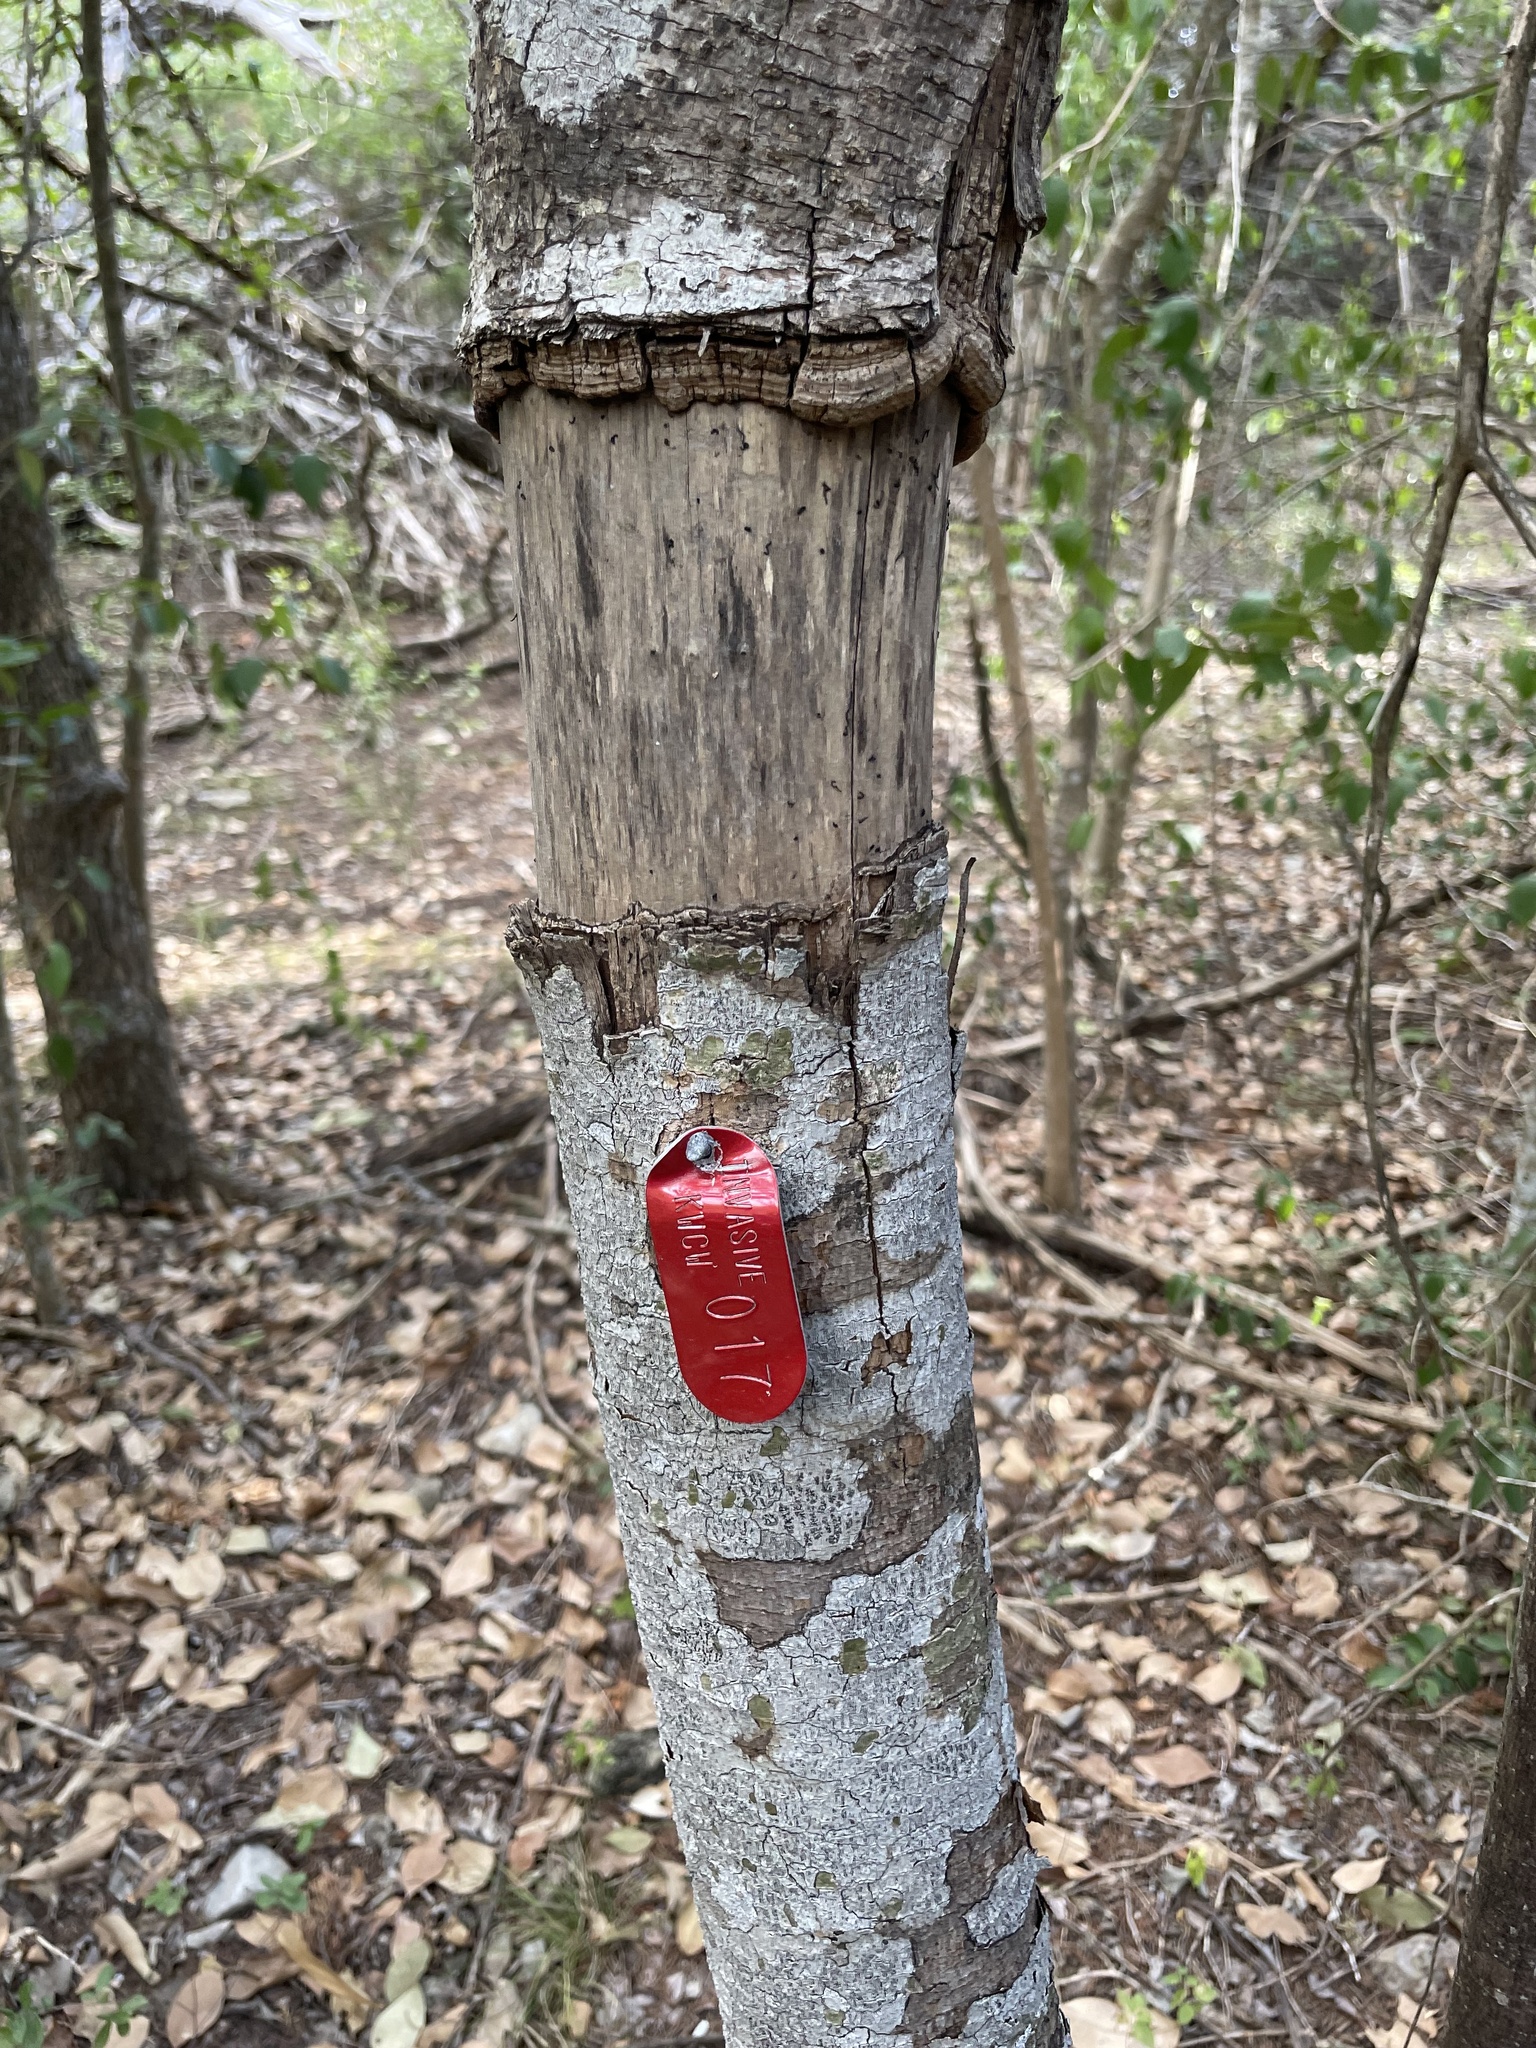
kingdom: Plantae
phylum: Tracheophyta
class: Magnoliopsida
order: Lamiales
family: Oleaceae
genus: Ligustrum
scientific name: Ligustrum lucidum
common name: Glossy privet
